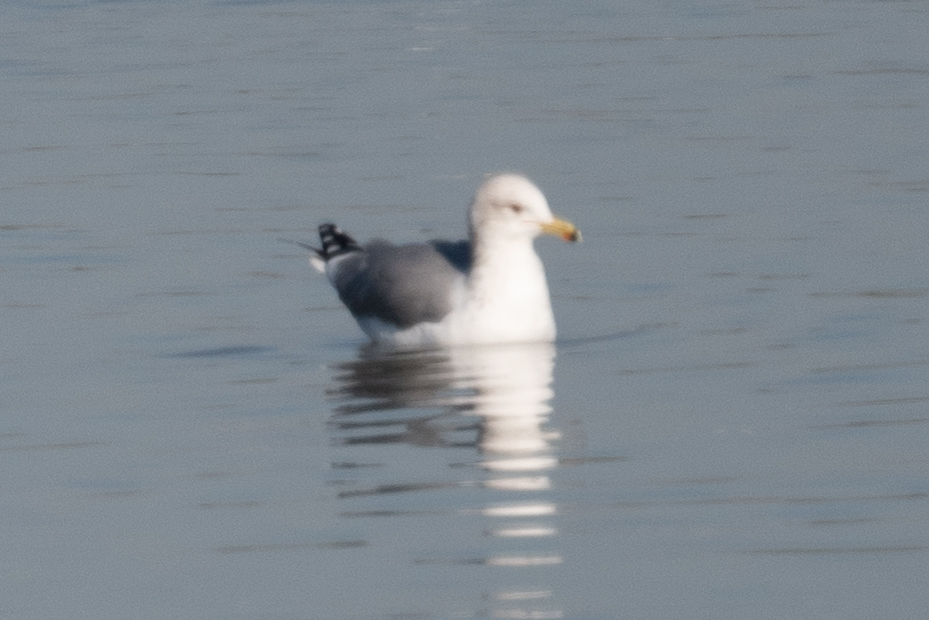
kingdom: Animalia
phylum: Chordata
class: Aves
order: Charadriiformes
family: Laridae
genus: Larus
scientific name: Larus californicus
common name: California gull
